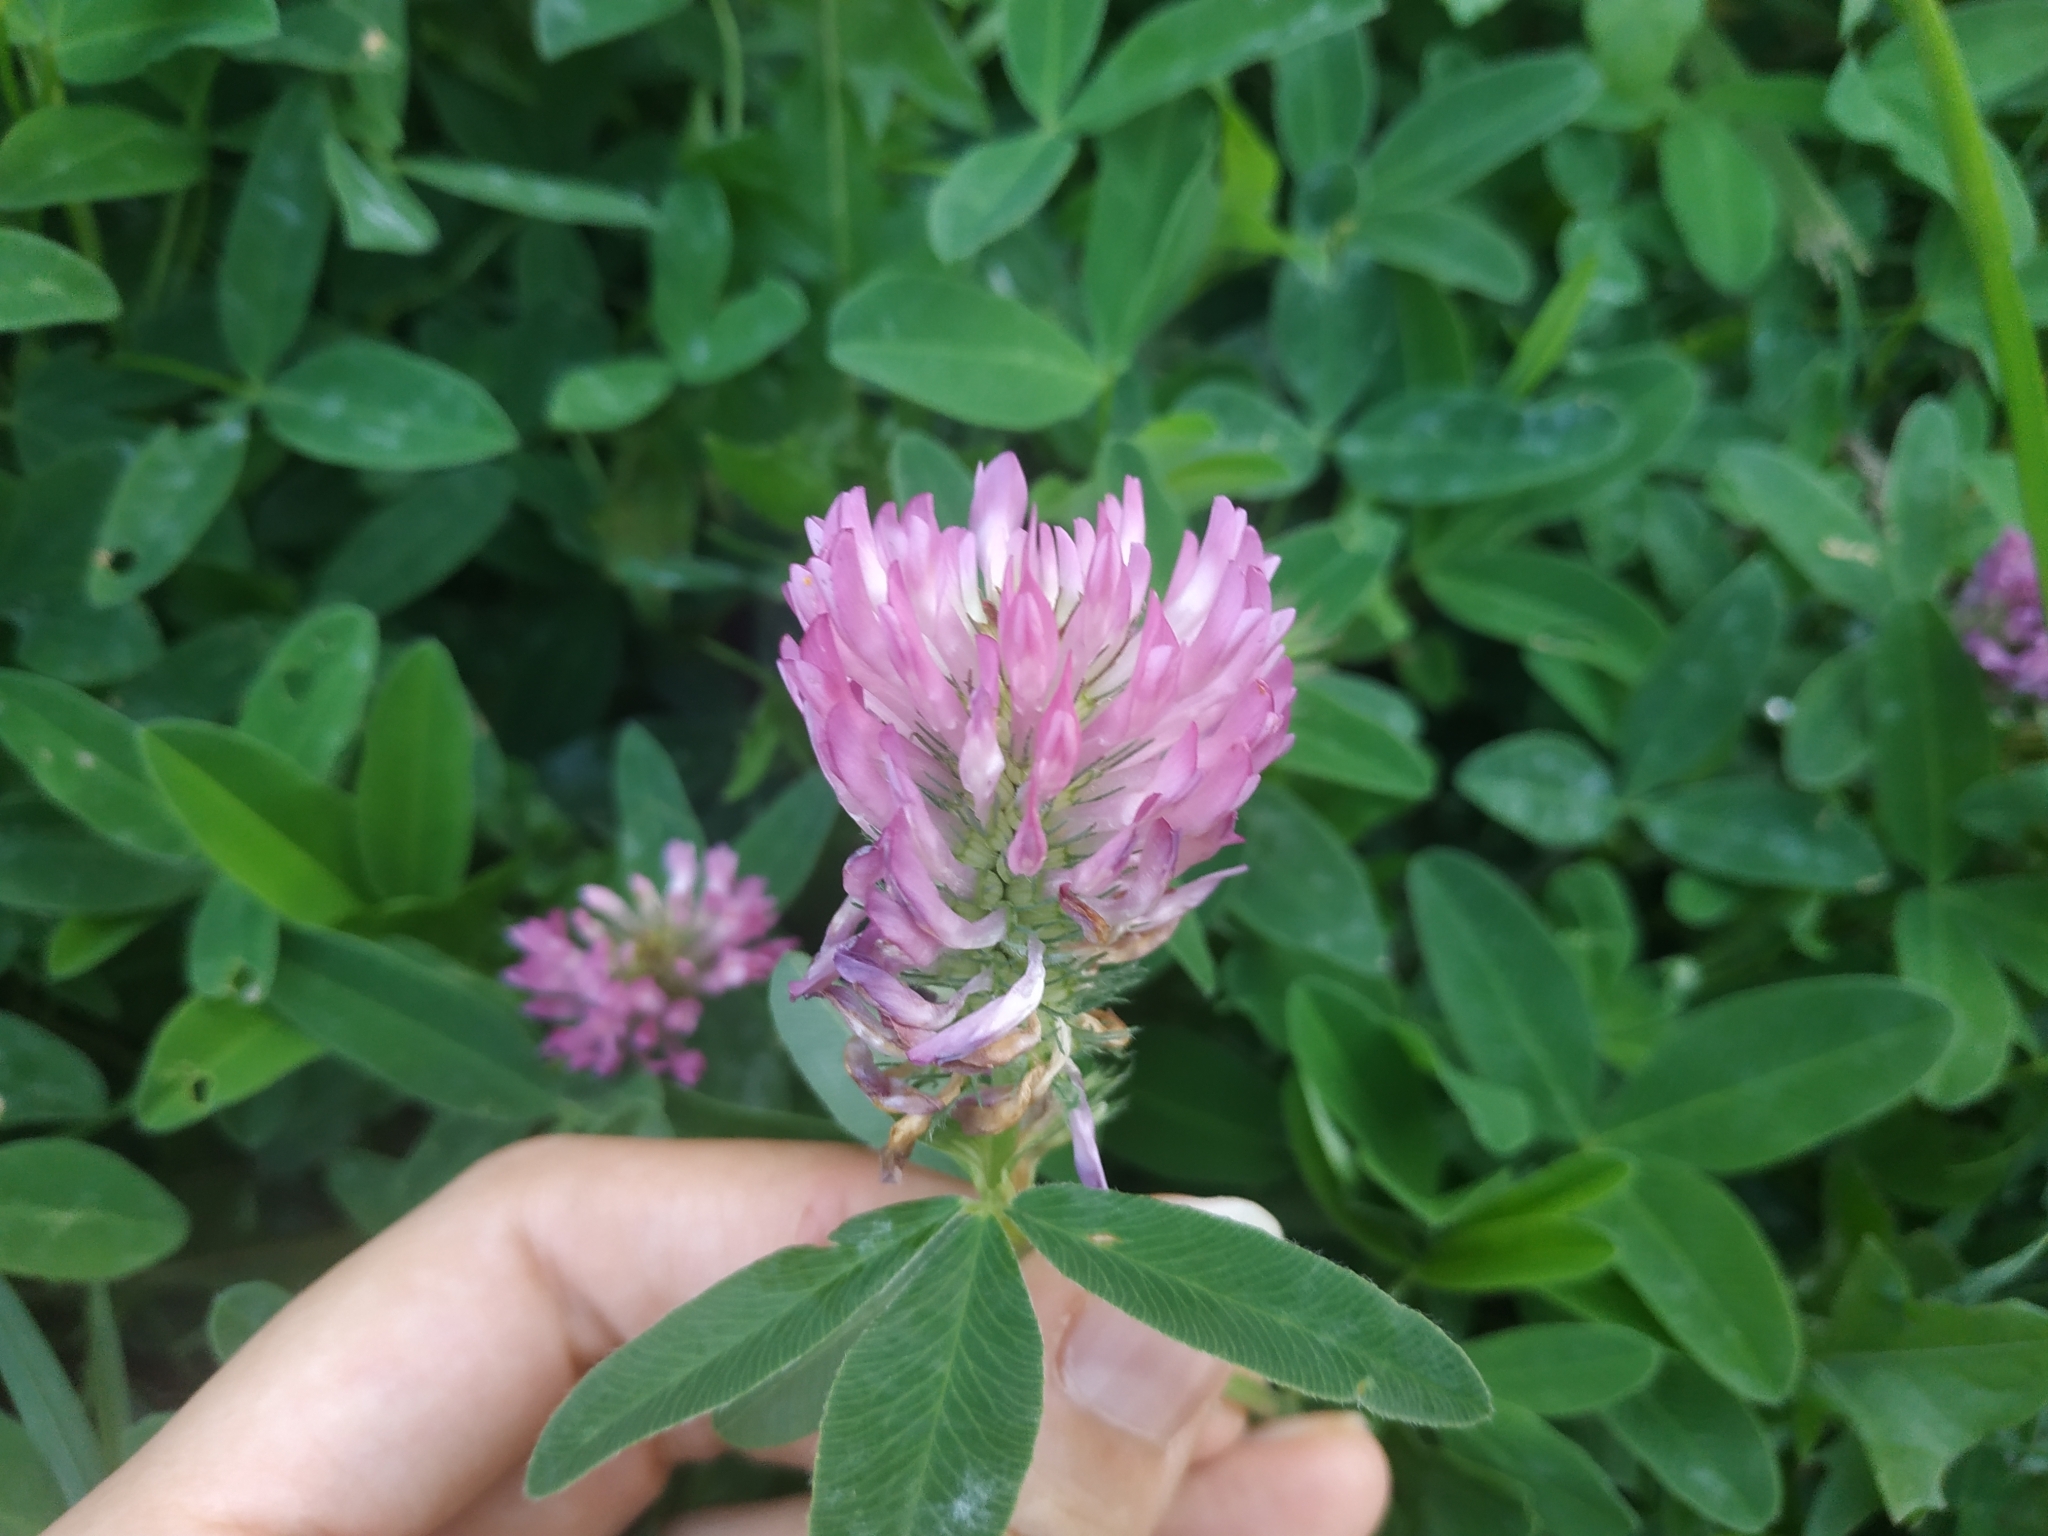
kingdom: Plantae
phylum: Tracheophyta
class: Magnoliopsida
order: Fabales
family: Fabaceae
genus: Trifolium
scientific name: Trifolium medium
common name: Zigzag clover
